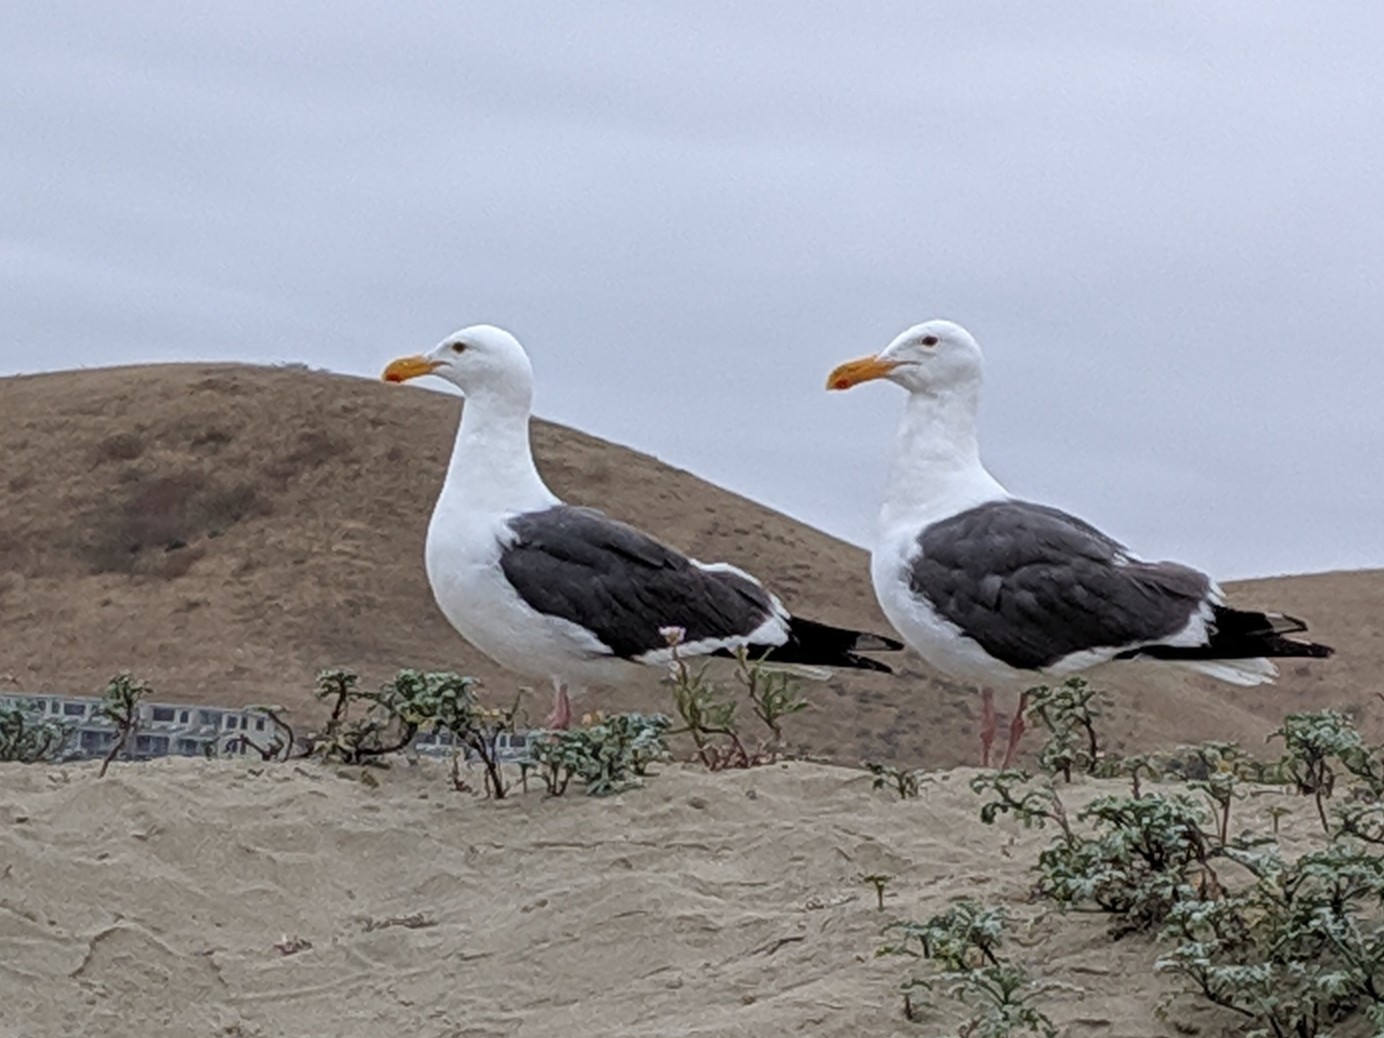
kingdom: Animalia
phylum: Chordata
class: Aves
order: Charadriiformes
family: Laridae
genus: Larus
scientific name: Larus occidentalis
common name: Western gull
